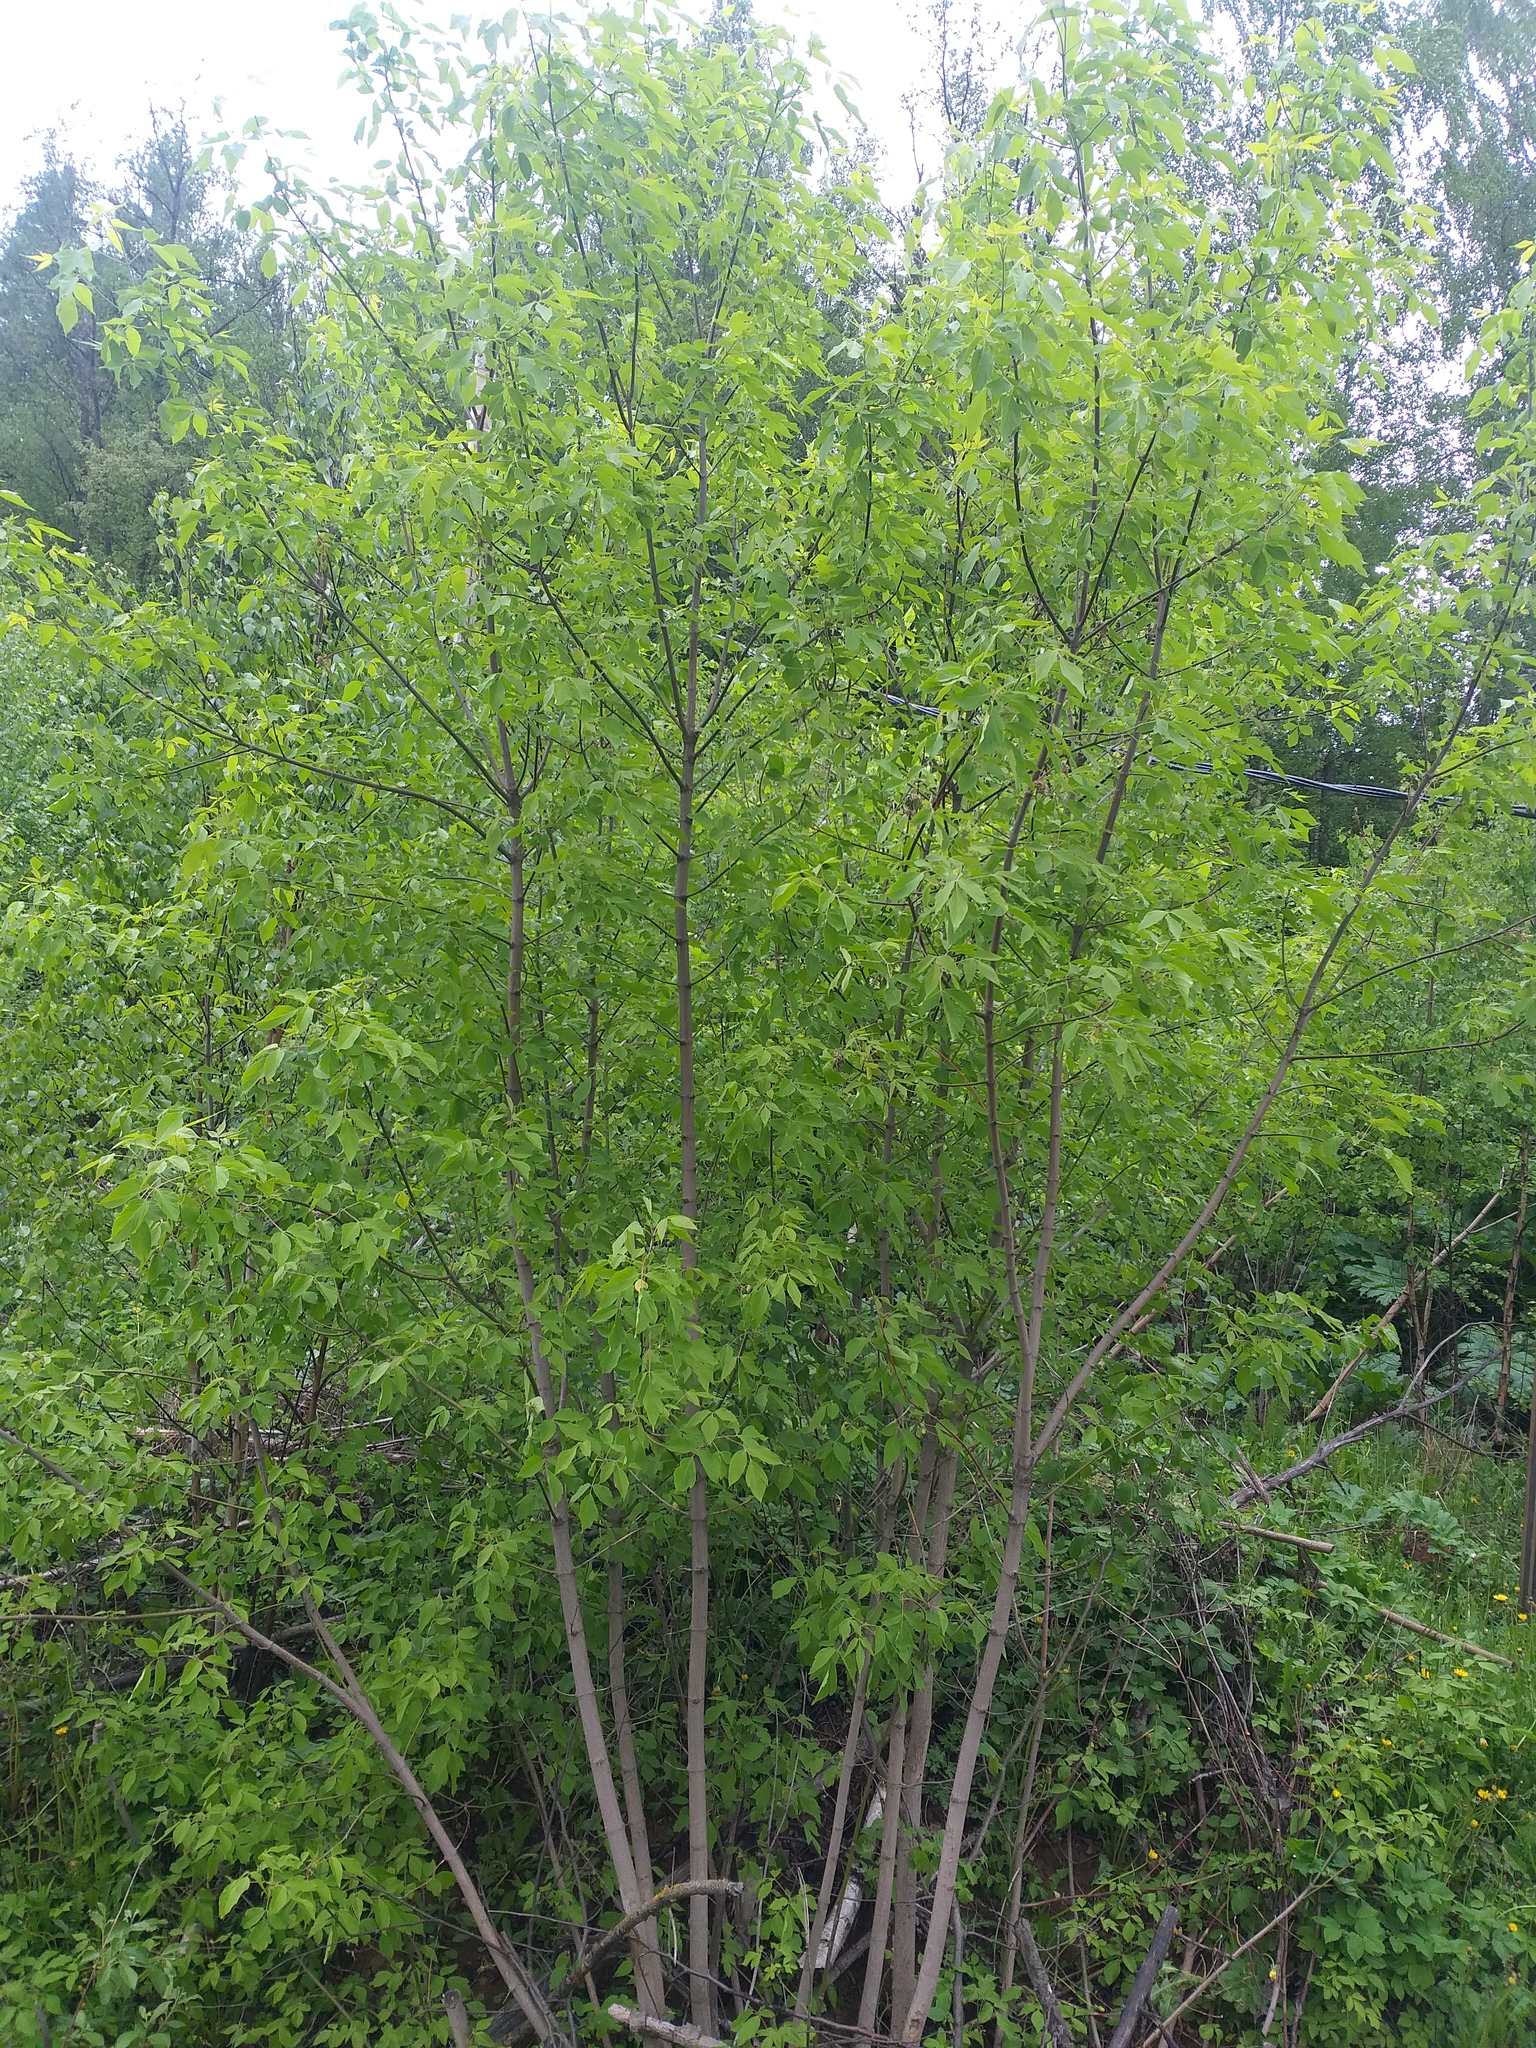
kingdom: Plantae
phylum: Tracheophyta
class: Magnoliopsida
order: Sapindales
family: Sapindaceae
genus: Acer
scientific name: Acer negundo
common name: Ashleaf maple
